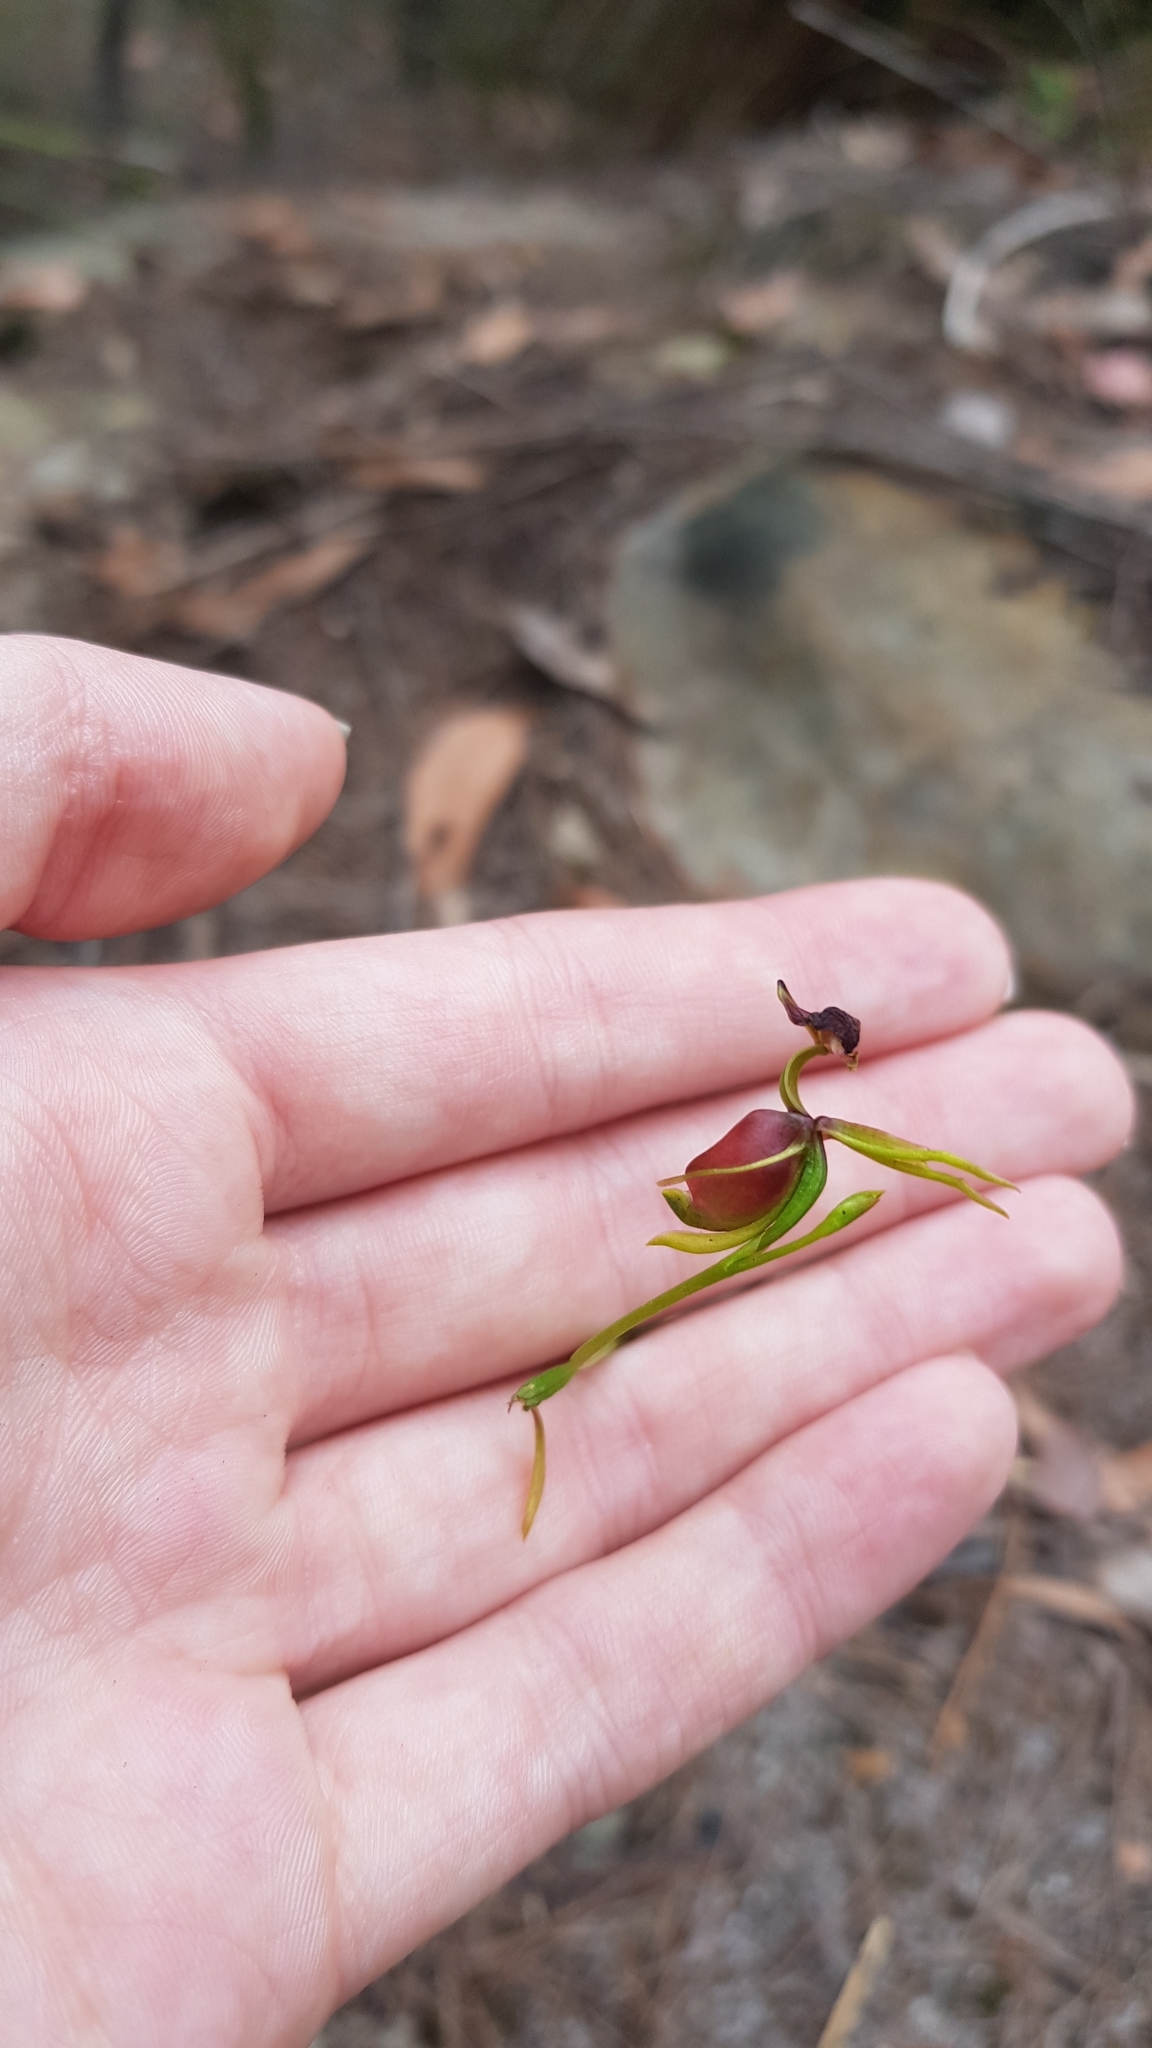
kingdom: Plantae
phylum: Tracheophyta
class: Liliopsida
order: Asparagales
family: Orchidaceae
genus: Caleana
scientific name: Caleana major
